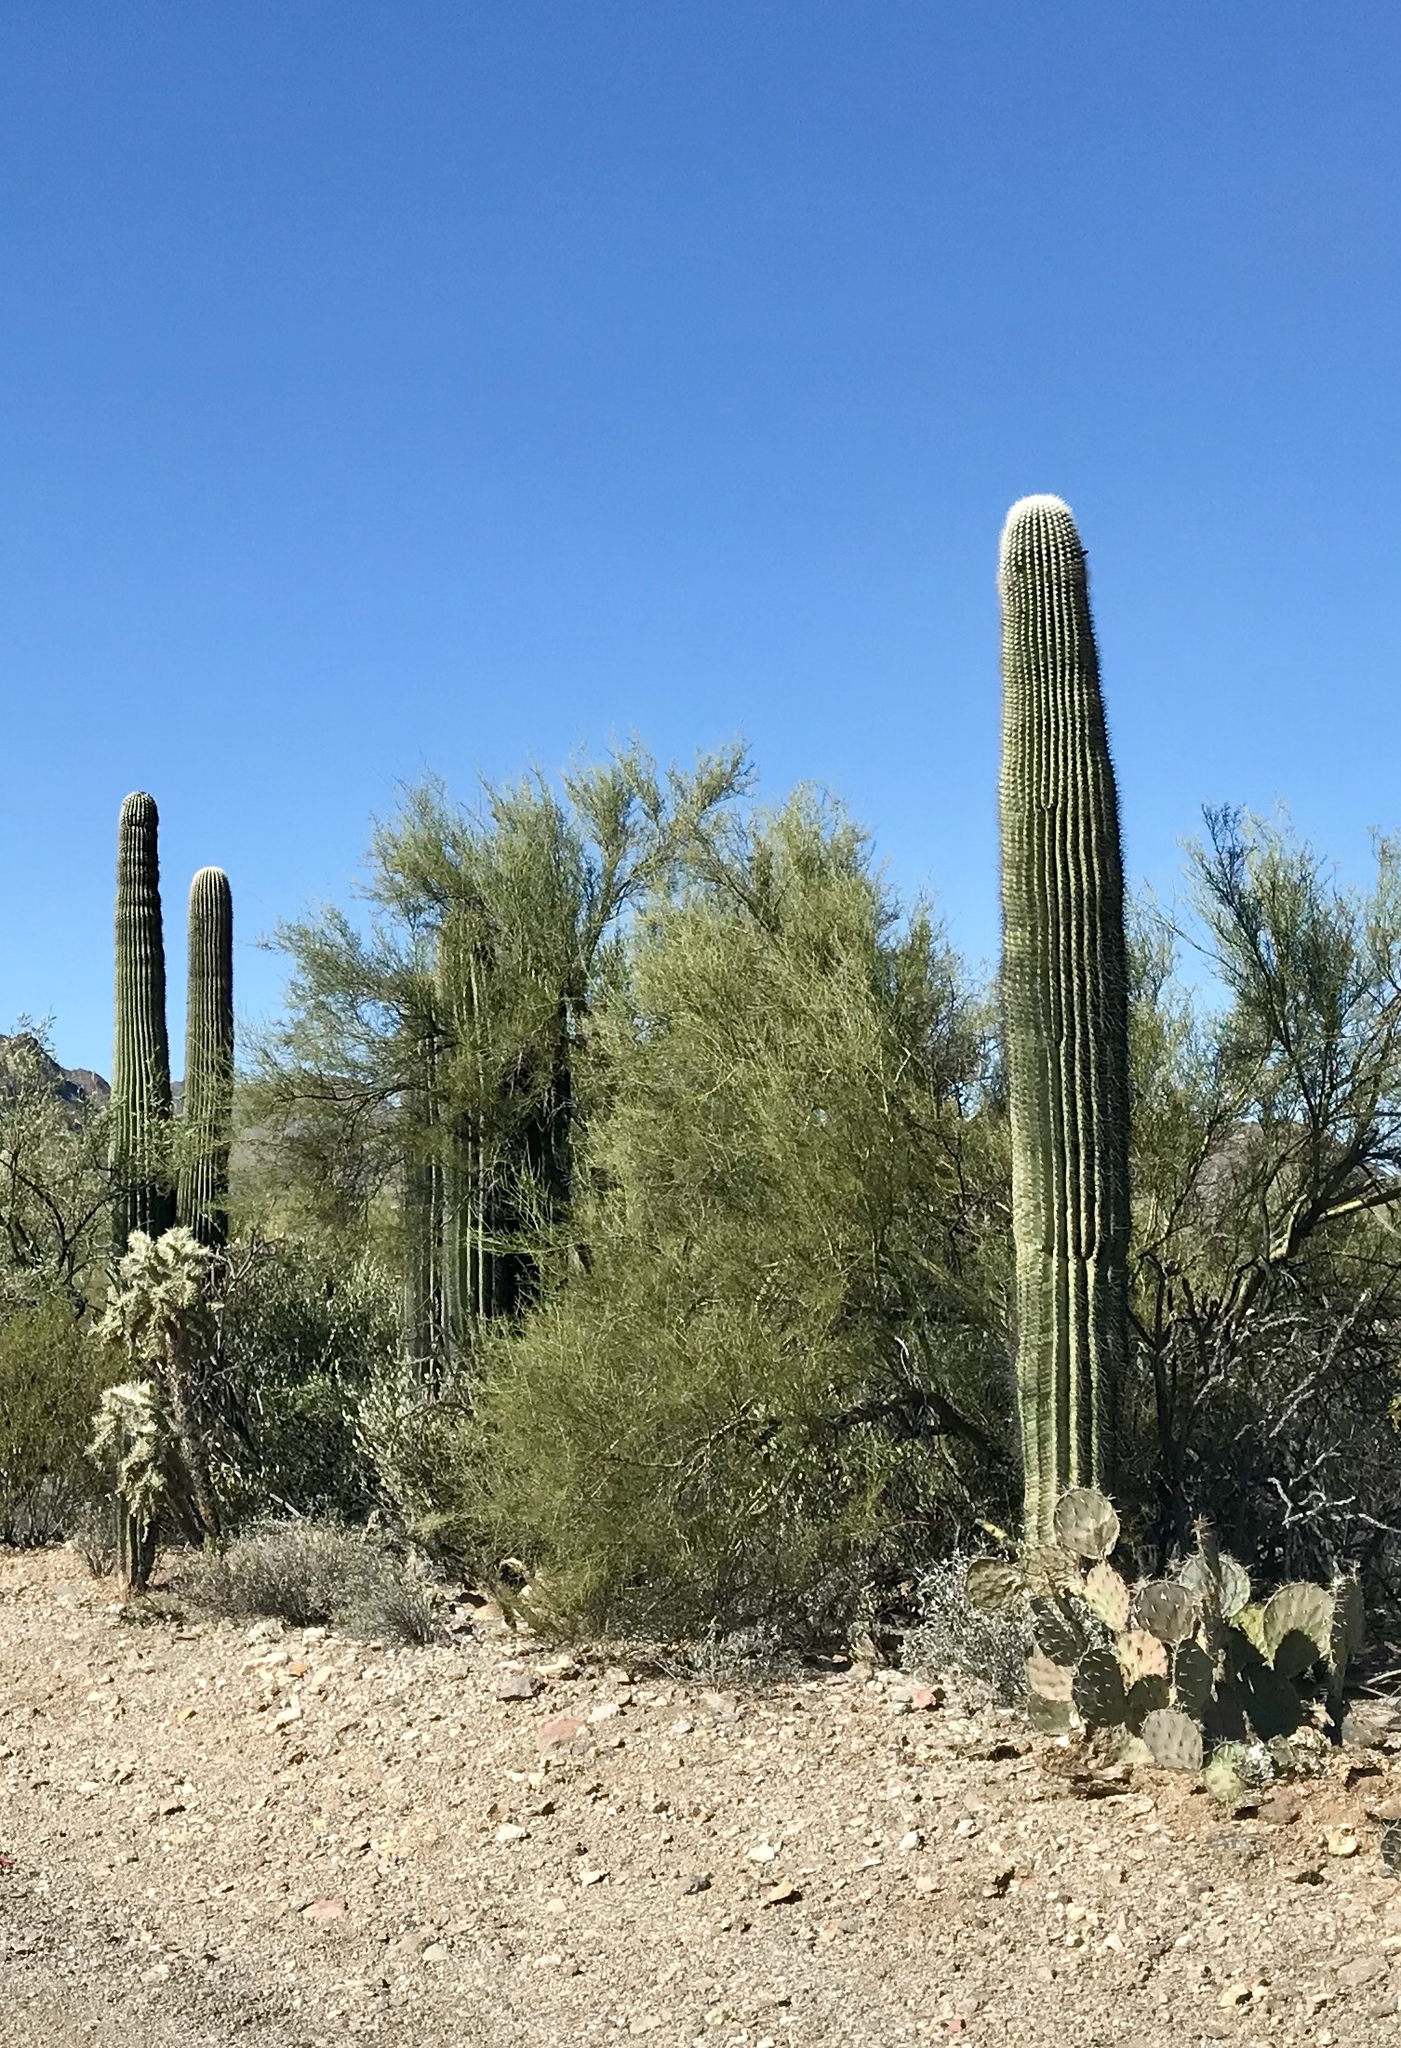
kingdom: Plantae
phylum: Tracheophyta
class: Magnoliopsida
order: Caryophyllales
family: Cactaceae
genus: Carnegiea
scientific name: Carnegiea gigantea
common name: Saguaro
